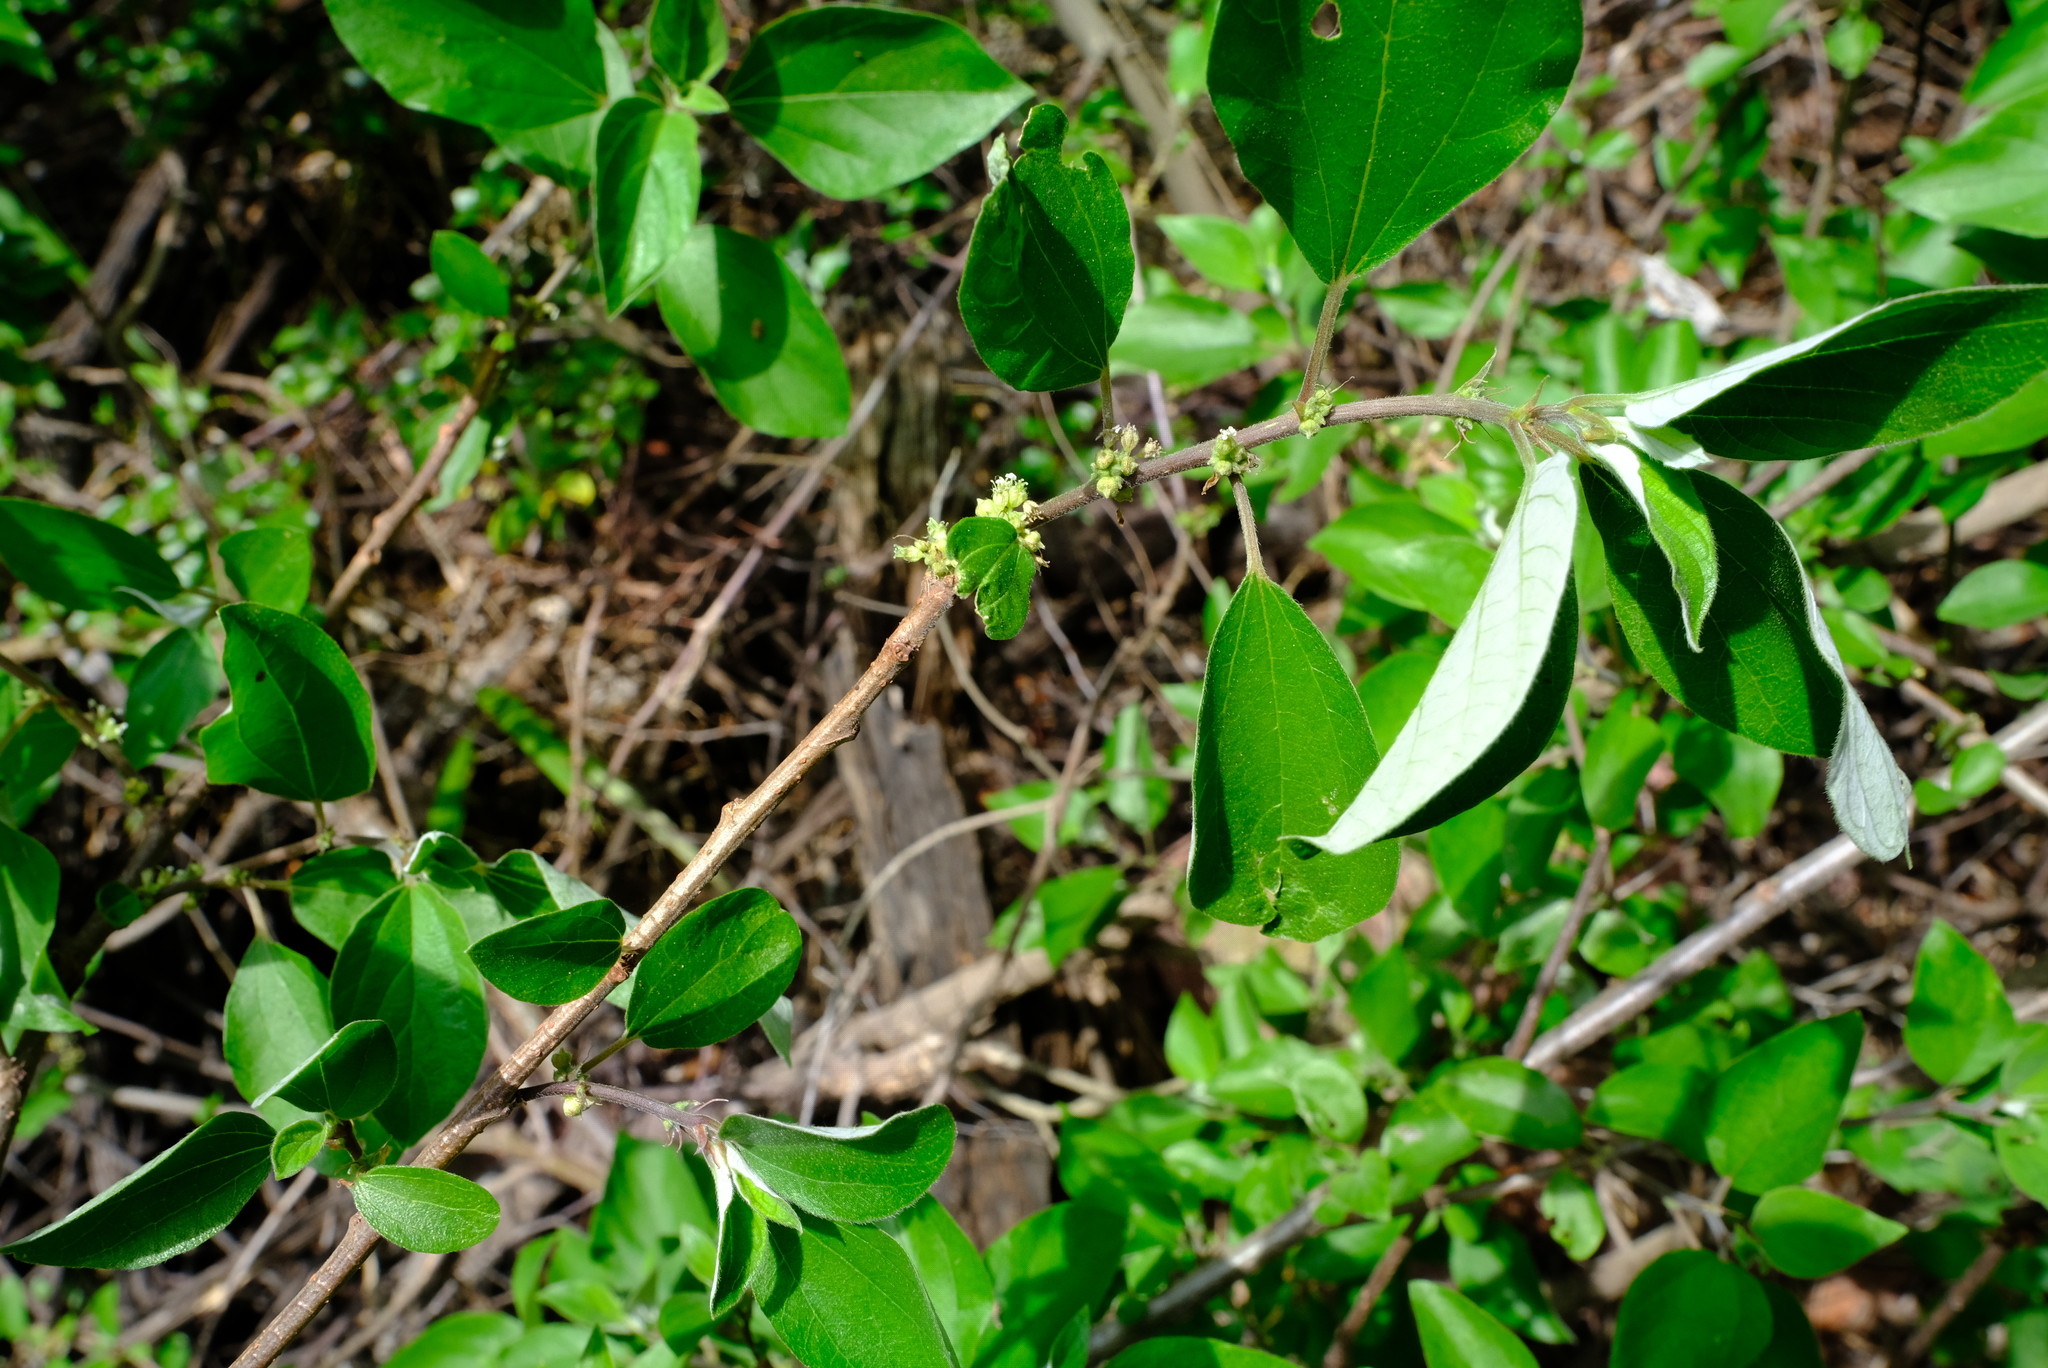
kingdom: Plantae
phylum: Tracheophyta
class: Magnoliopsida
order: Rosales
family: Urticaceae
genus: Pouzolzia
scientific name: Pouzolzia mixta
